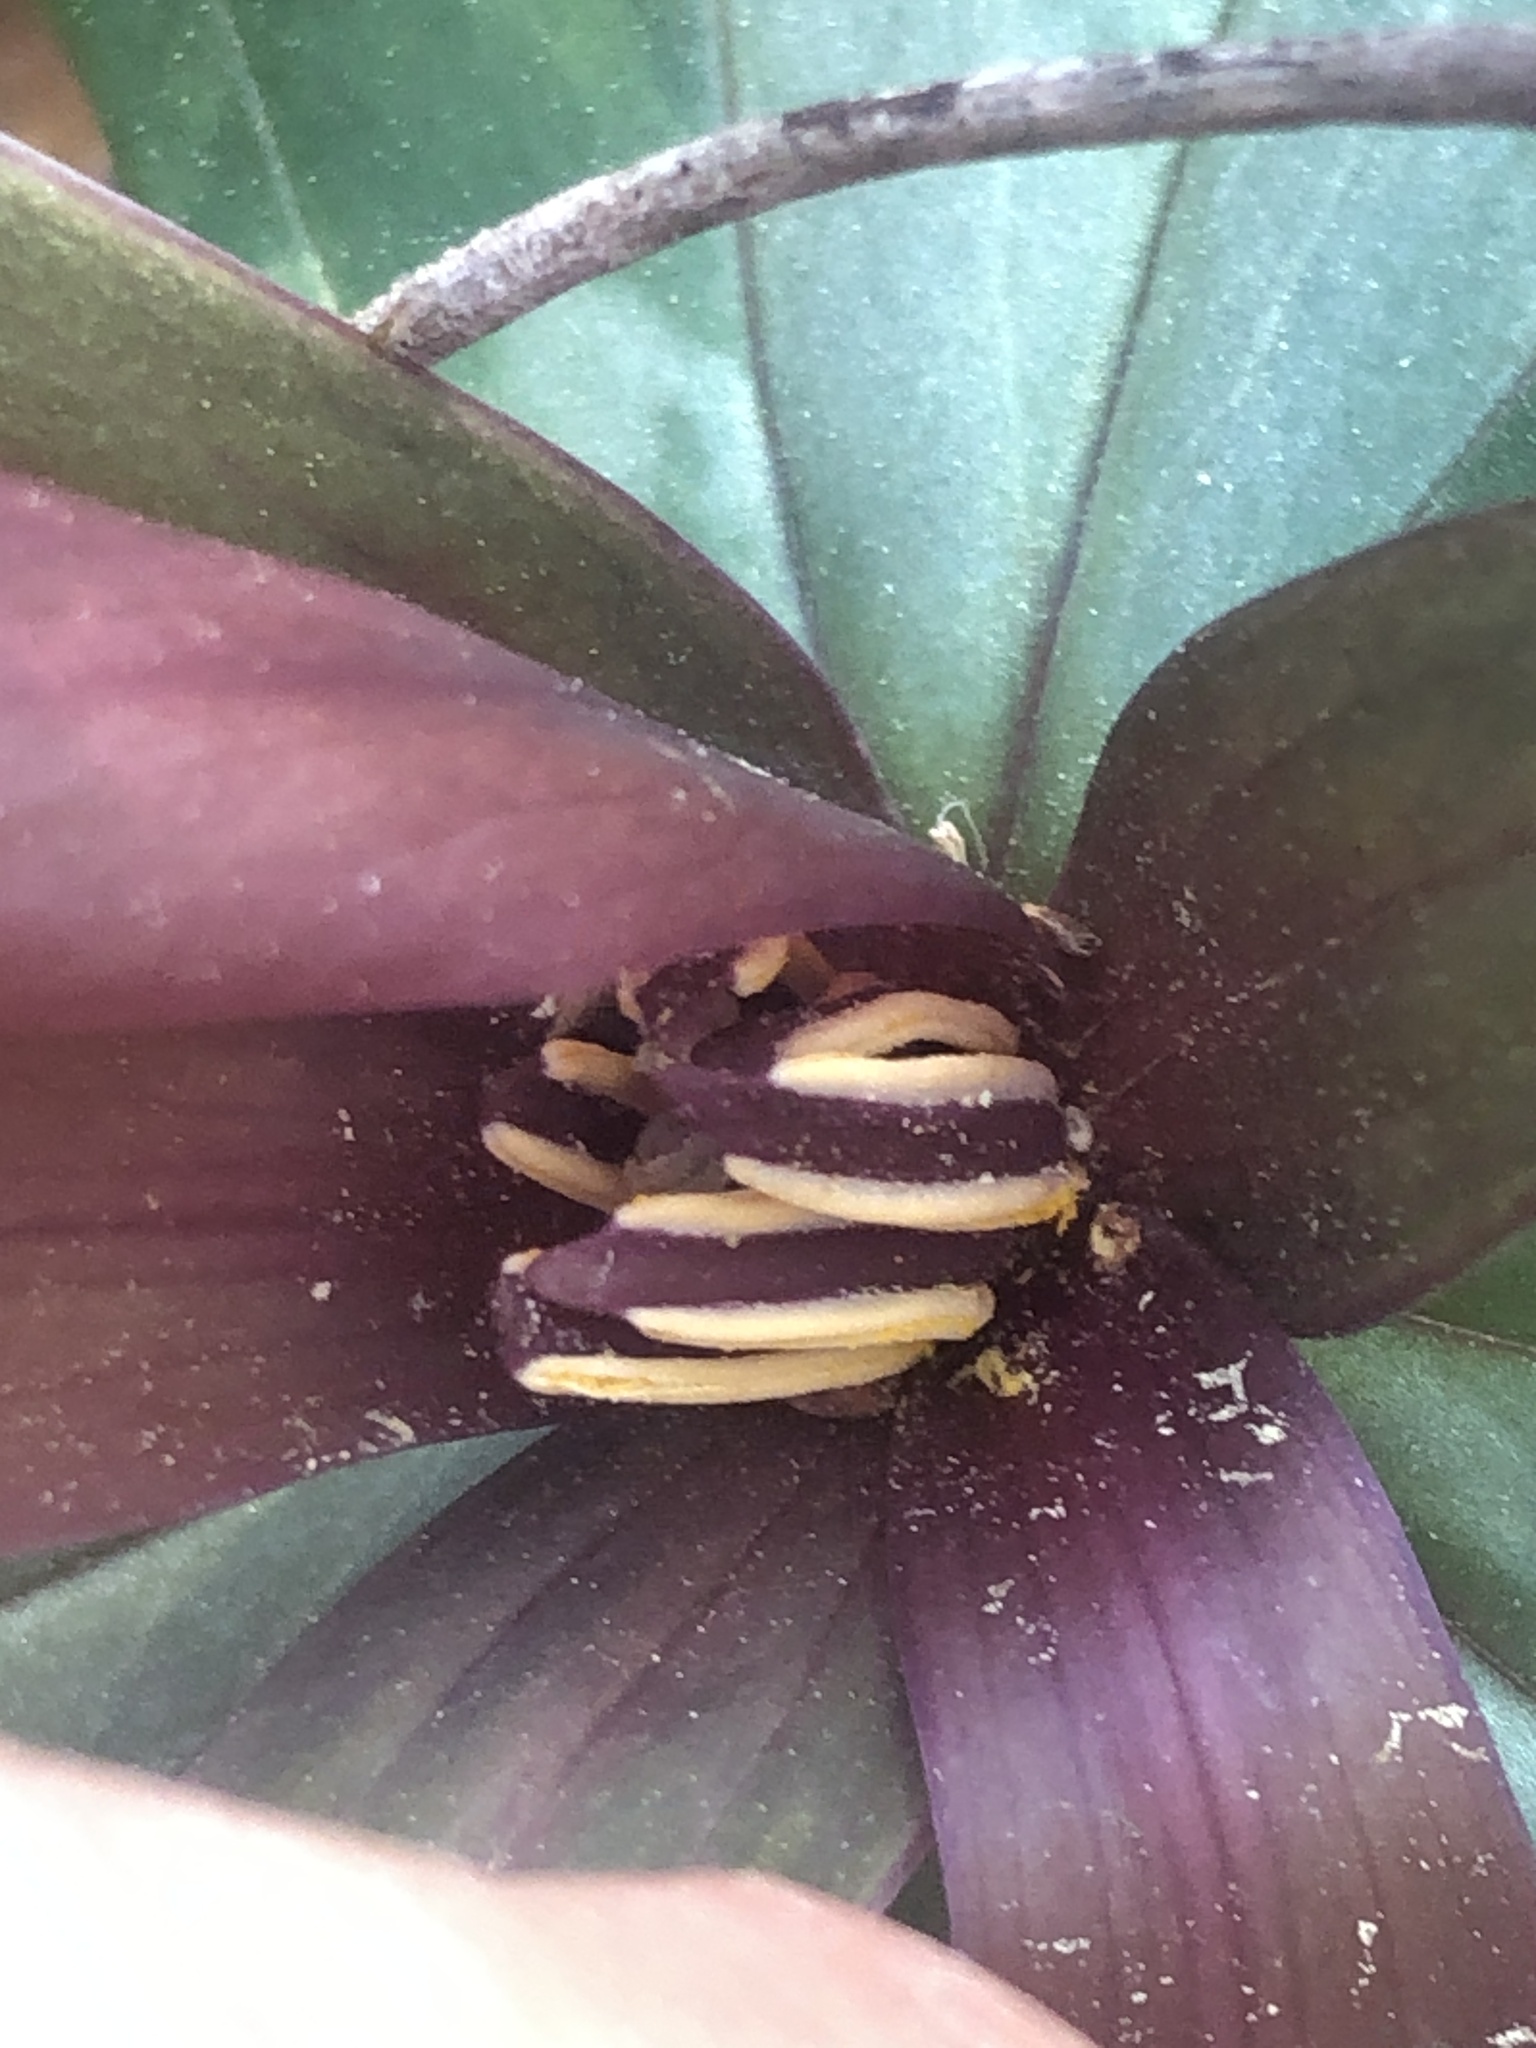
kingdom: Plantae
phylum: Tracheophyta
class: Liliopsida
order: Liliales
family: Melanthiaceae
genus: Trillium
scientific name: Trillium underwoodii
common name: Longbract wakerobin
